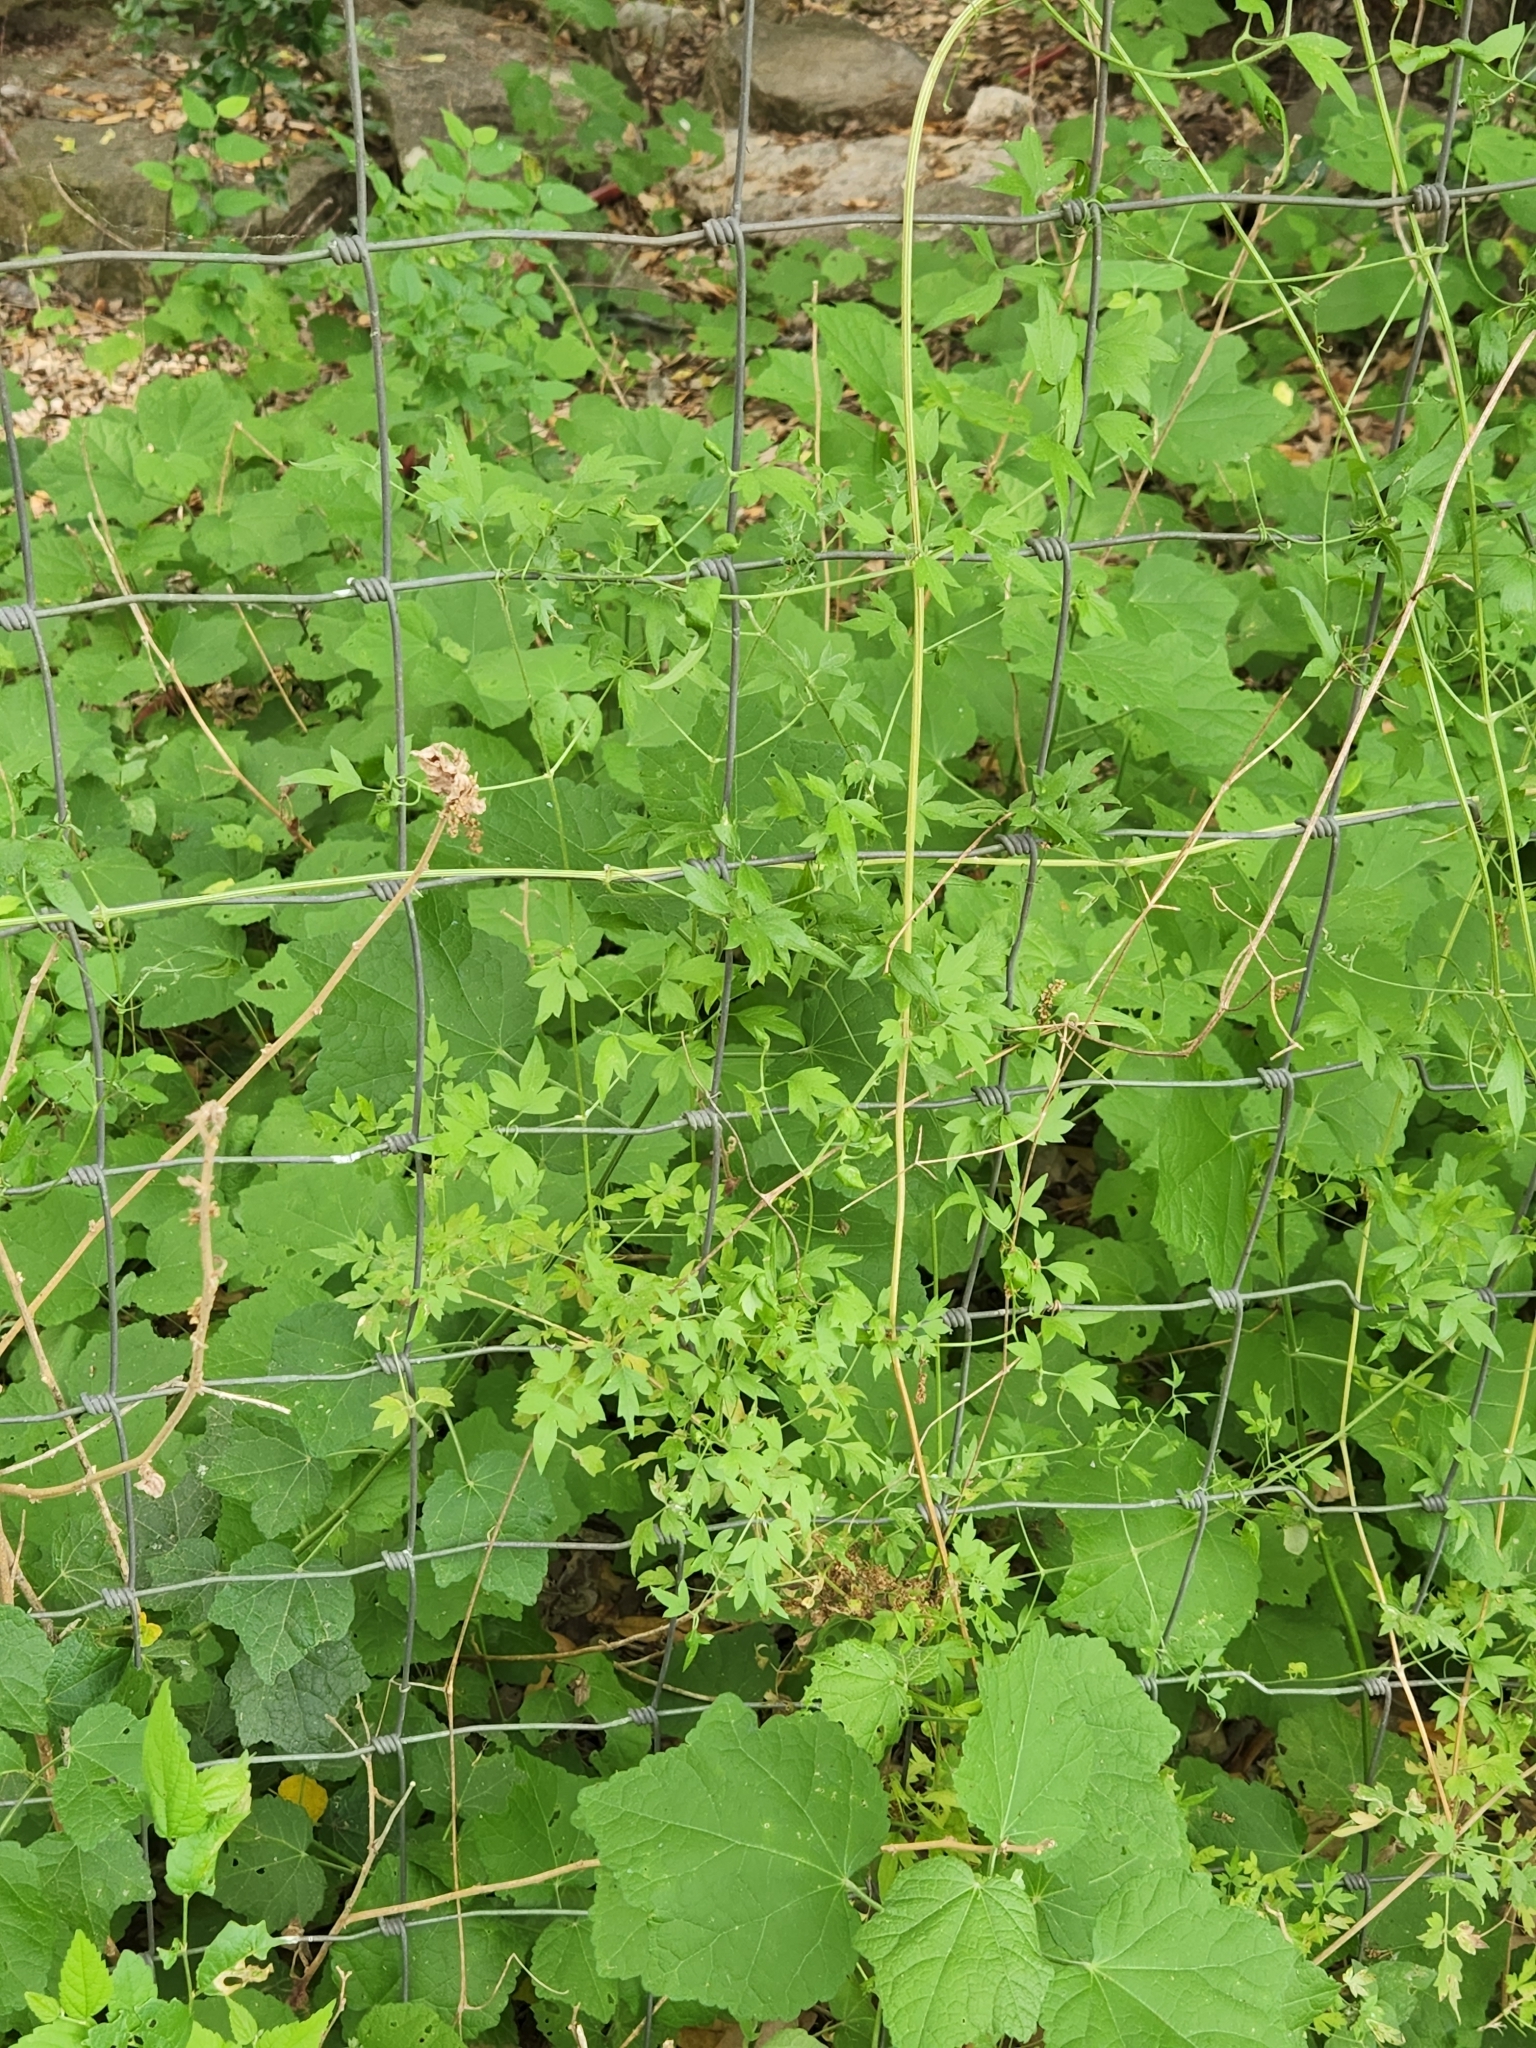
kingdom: Plantae
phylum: Tracheophyta
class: Magnoliopsida
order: Ranunculales
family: Ranunculaceae
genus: Clematis
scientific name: Clematis drummondii
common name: Texas virgin's bower
